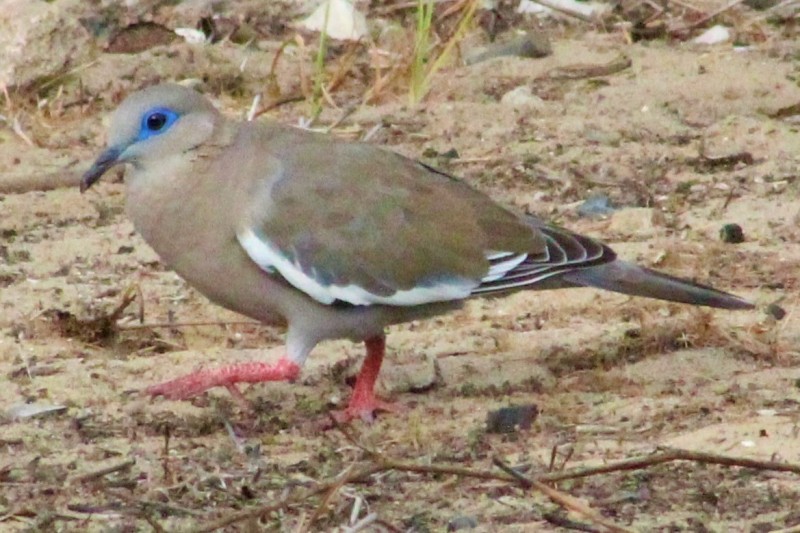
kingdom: Animalia
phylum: Chordata
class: Aves
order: Columbiformes
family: Columbidae
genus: Zenaida
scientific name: Zenaida meloda
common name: West peruvian dove
